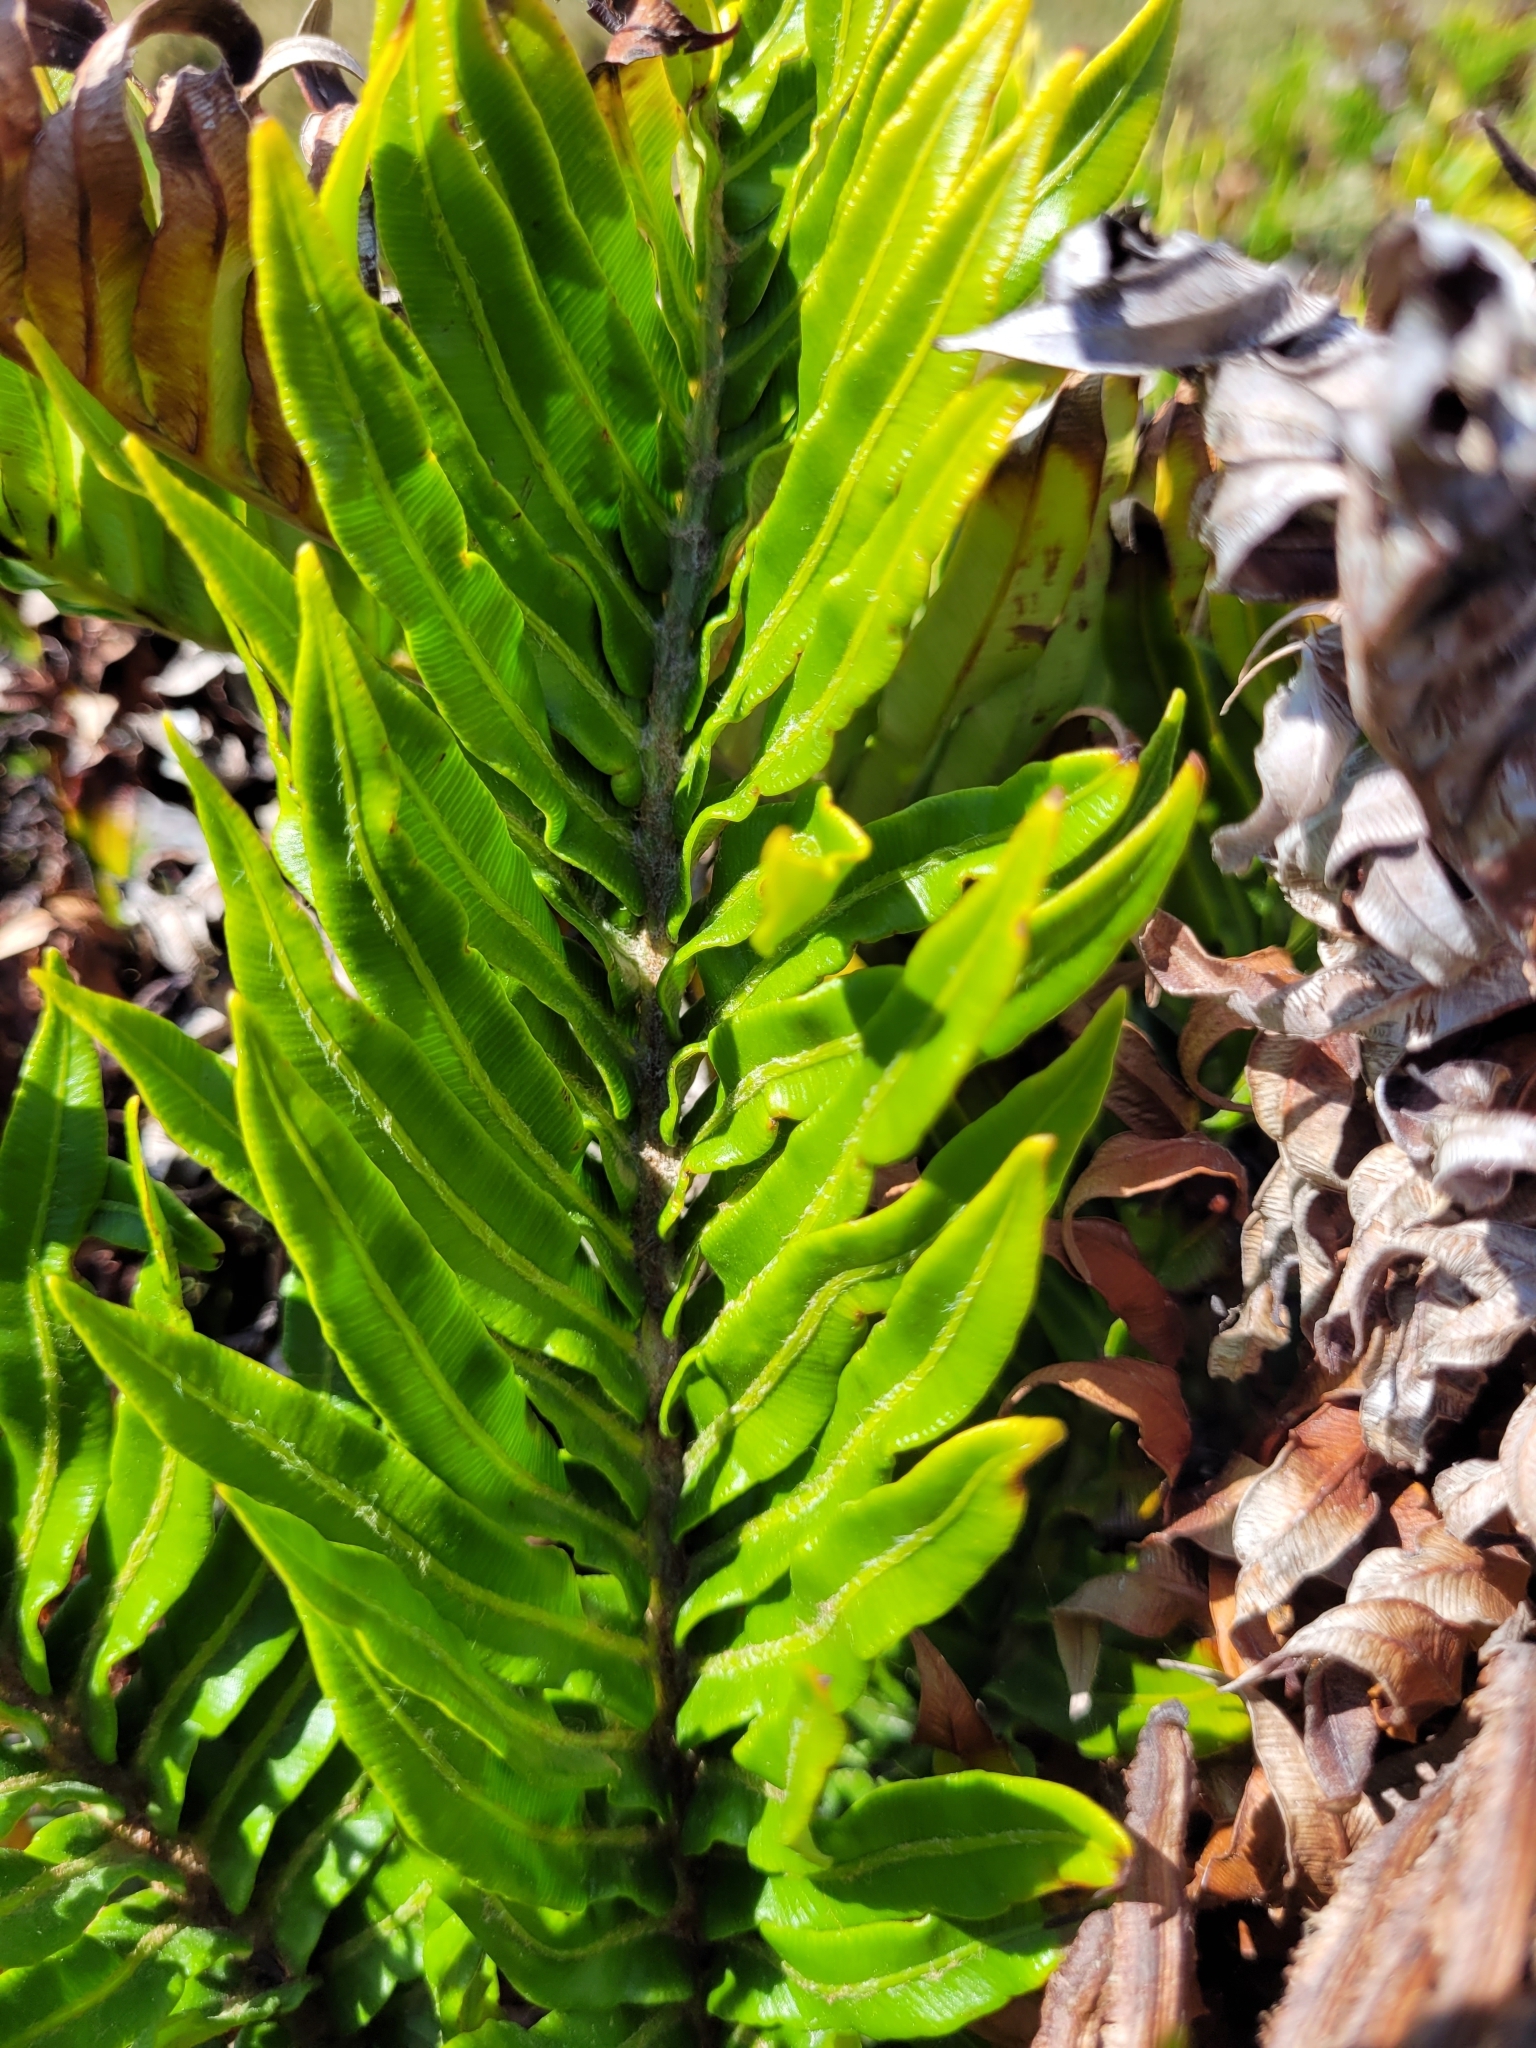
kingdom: Plantae
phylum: Tracheophyta
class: Polypodiopsida
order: Polypodiales
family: Blechnaceae
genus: Lomariocycas
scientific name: Lomariocycas magellanica
